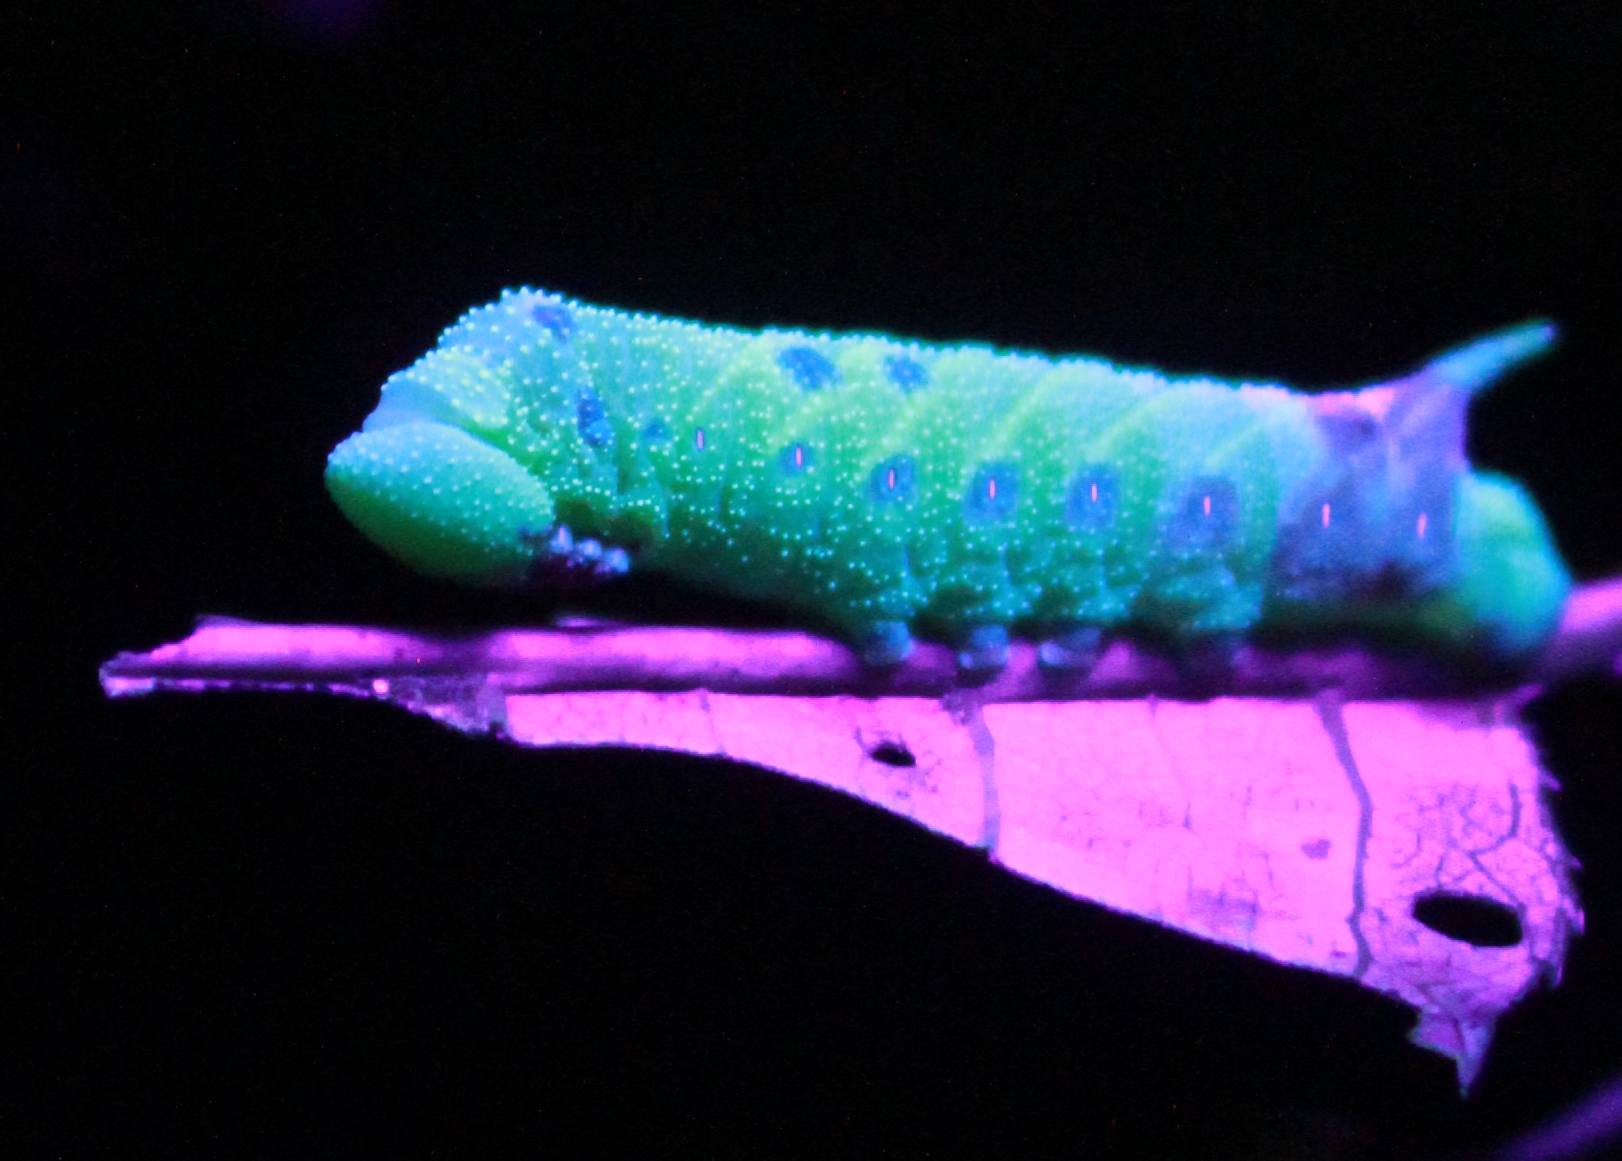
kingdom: Animalia
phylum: Arthropoda
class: Insecta
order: Lepidoptera
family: Sphingidae
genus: Paonias
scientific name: Paonias myops
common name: Small-eyed sphinx
